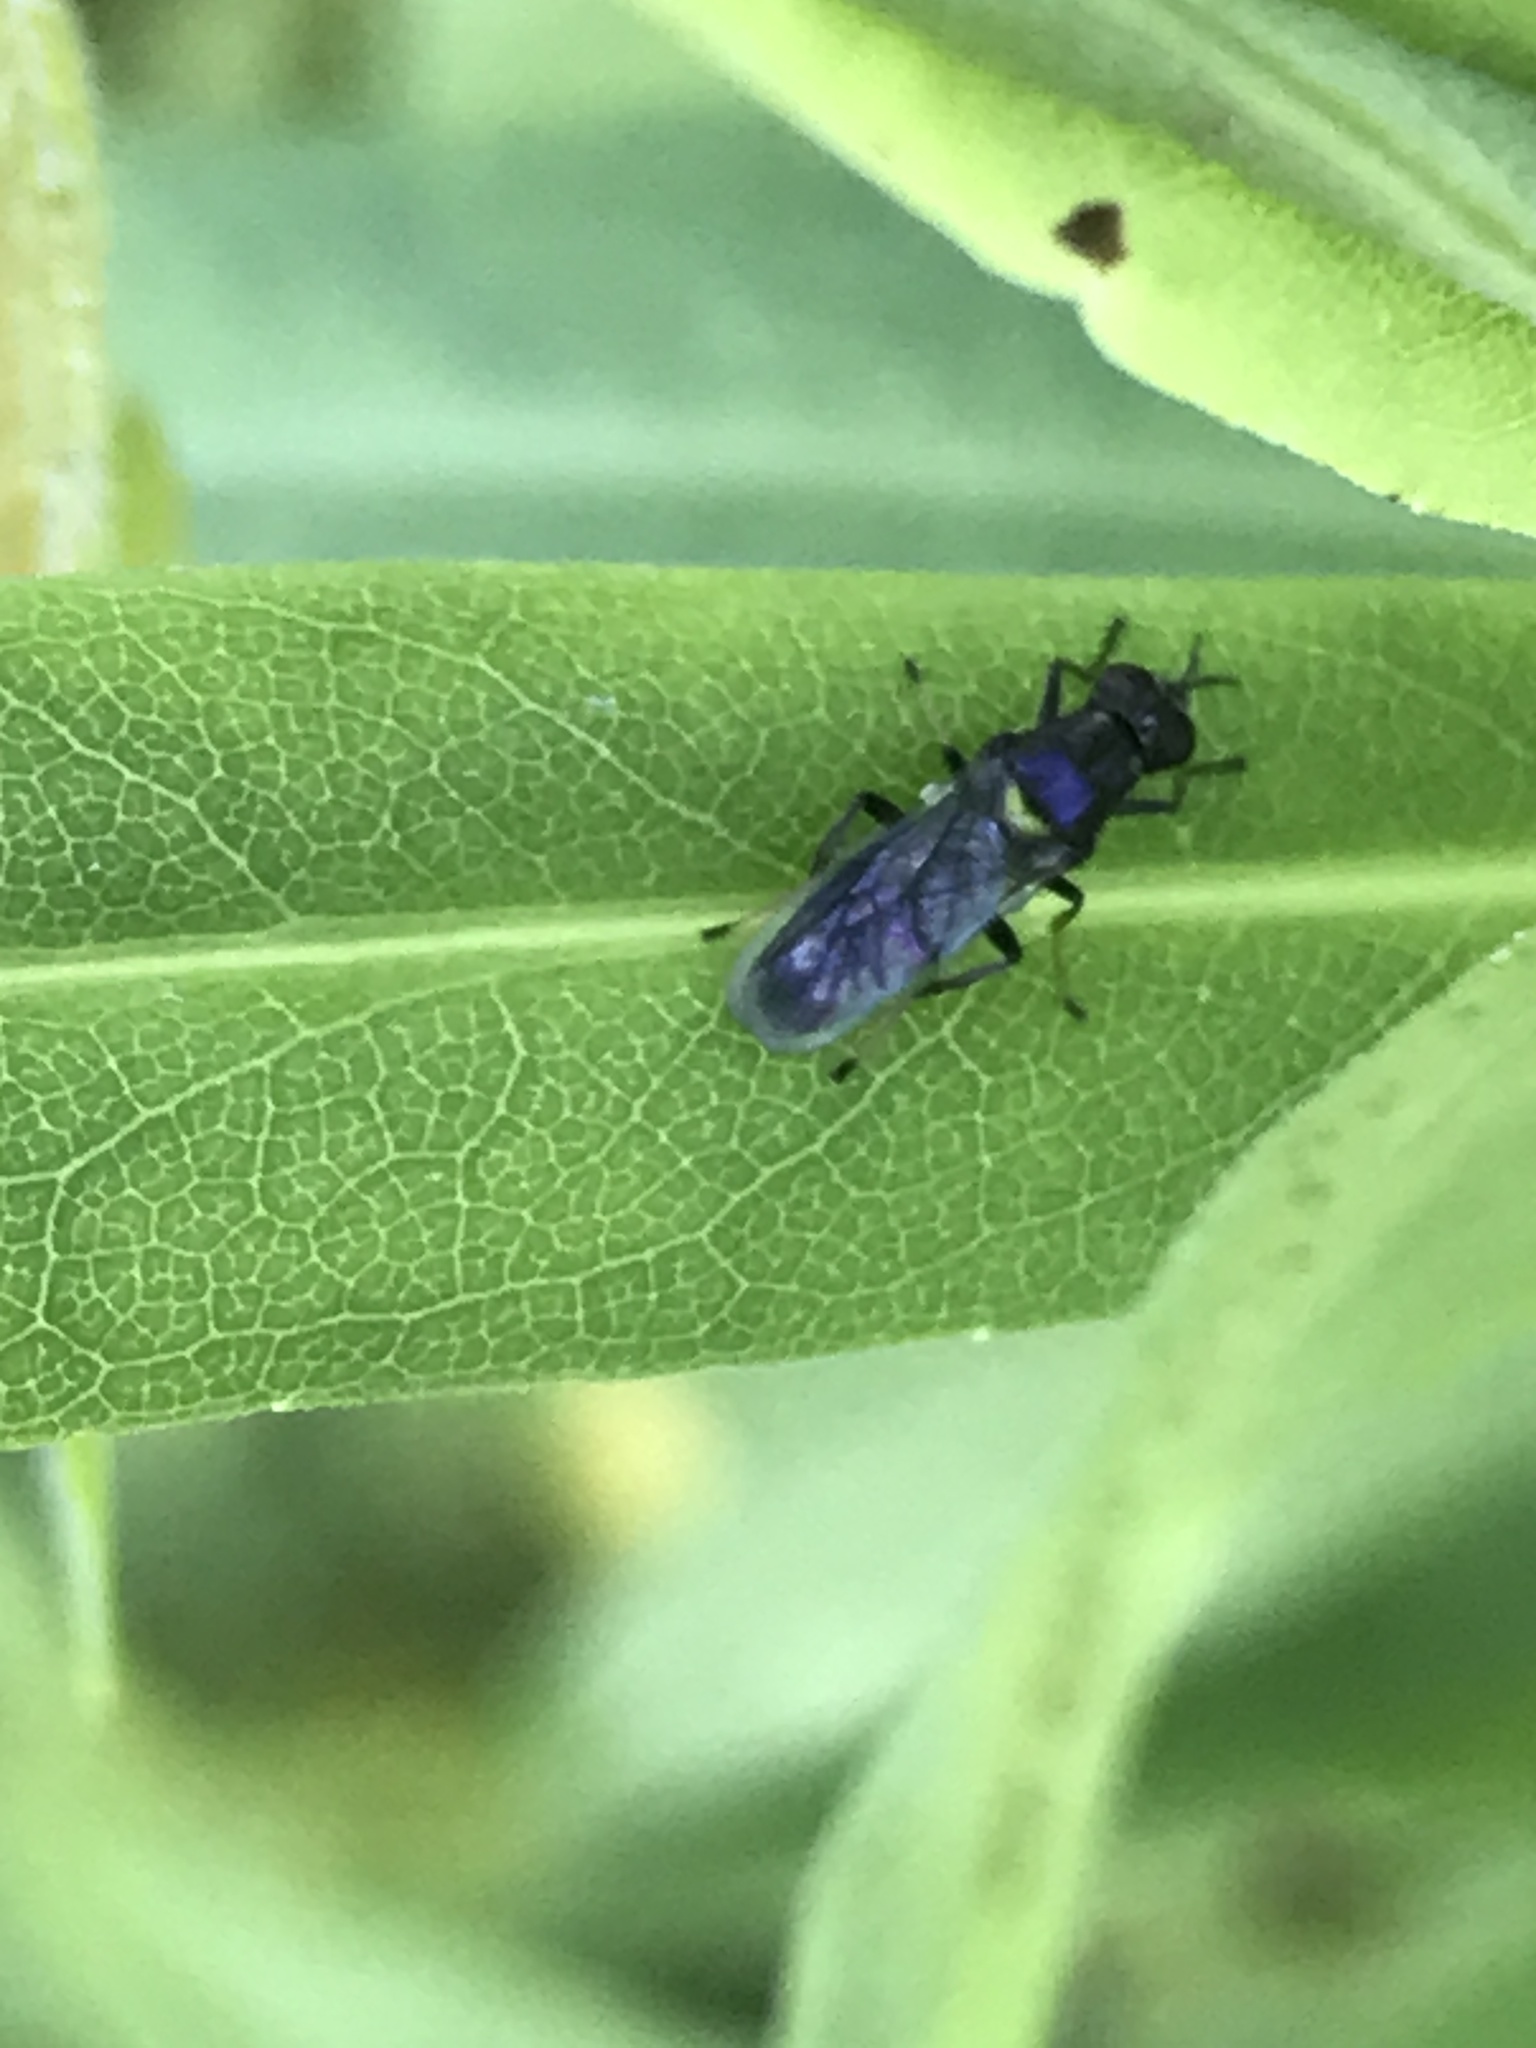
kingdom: Animalia
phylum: Arthropoda
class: Insecta
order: Diptera
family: Stratiomyidae
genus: Myxosargus
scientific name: Myxosargus nigricormis
